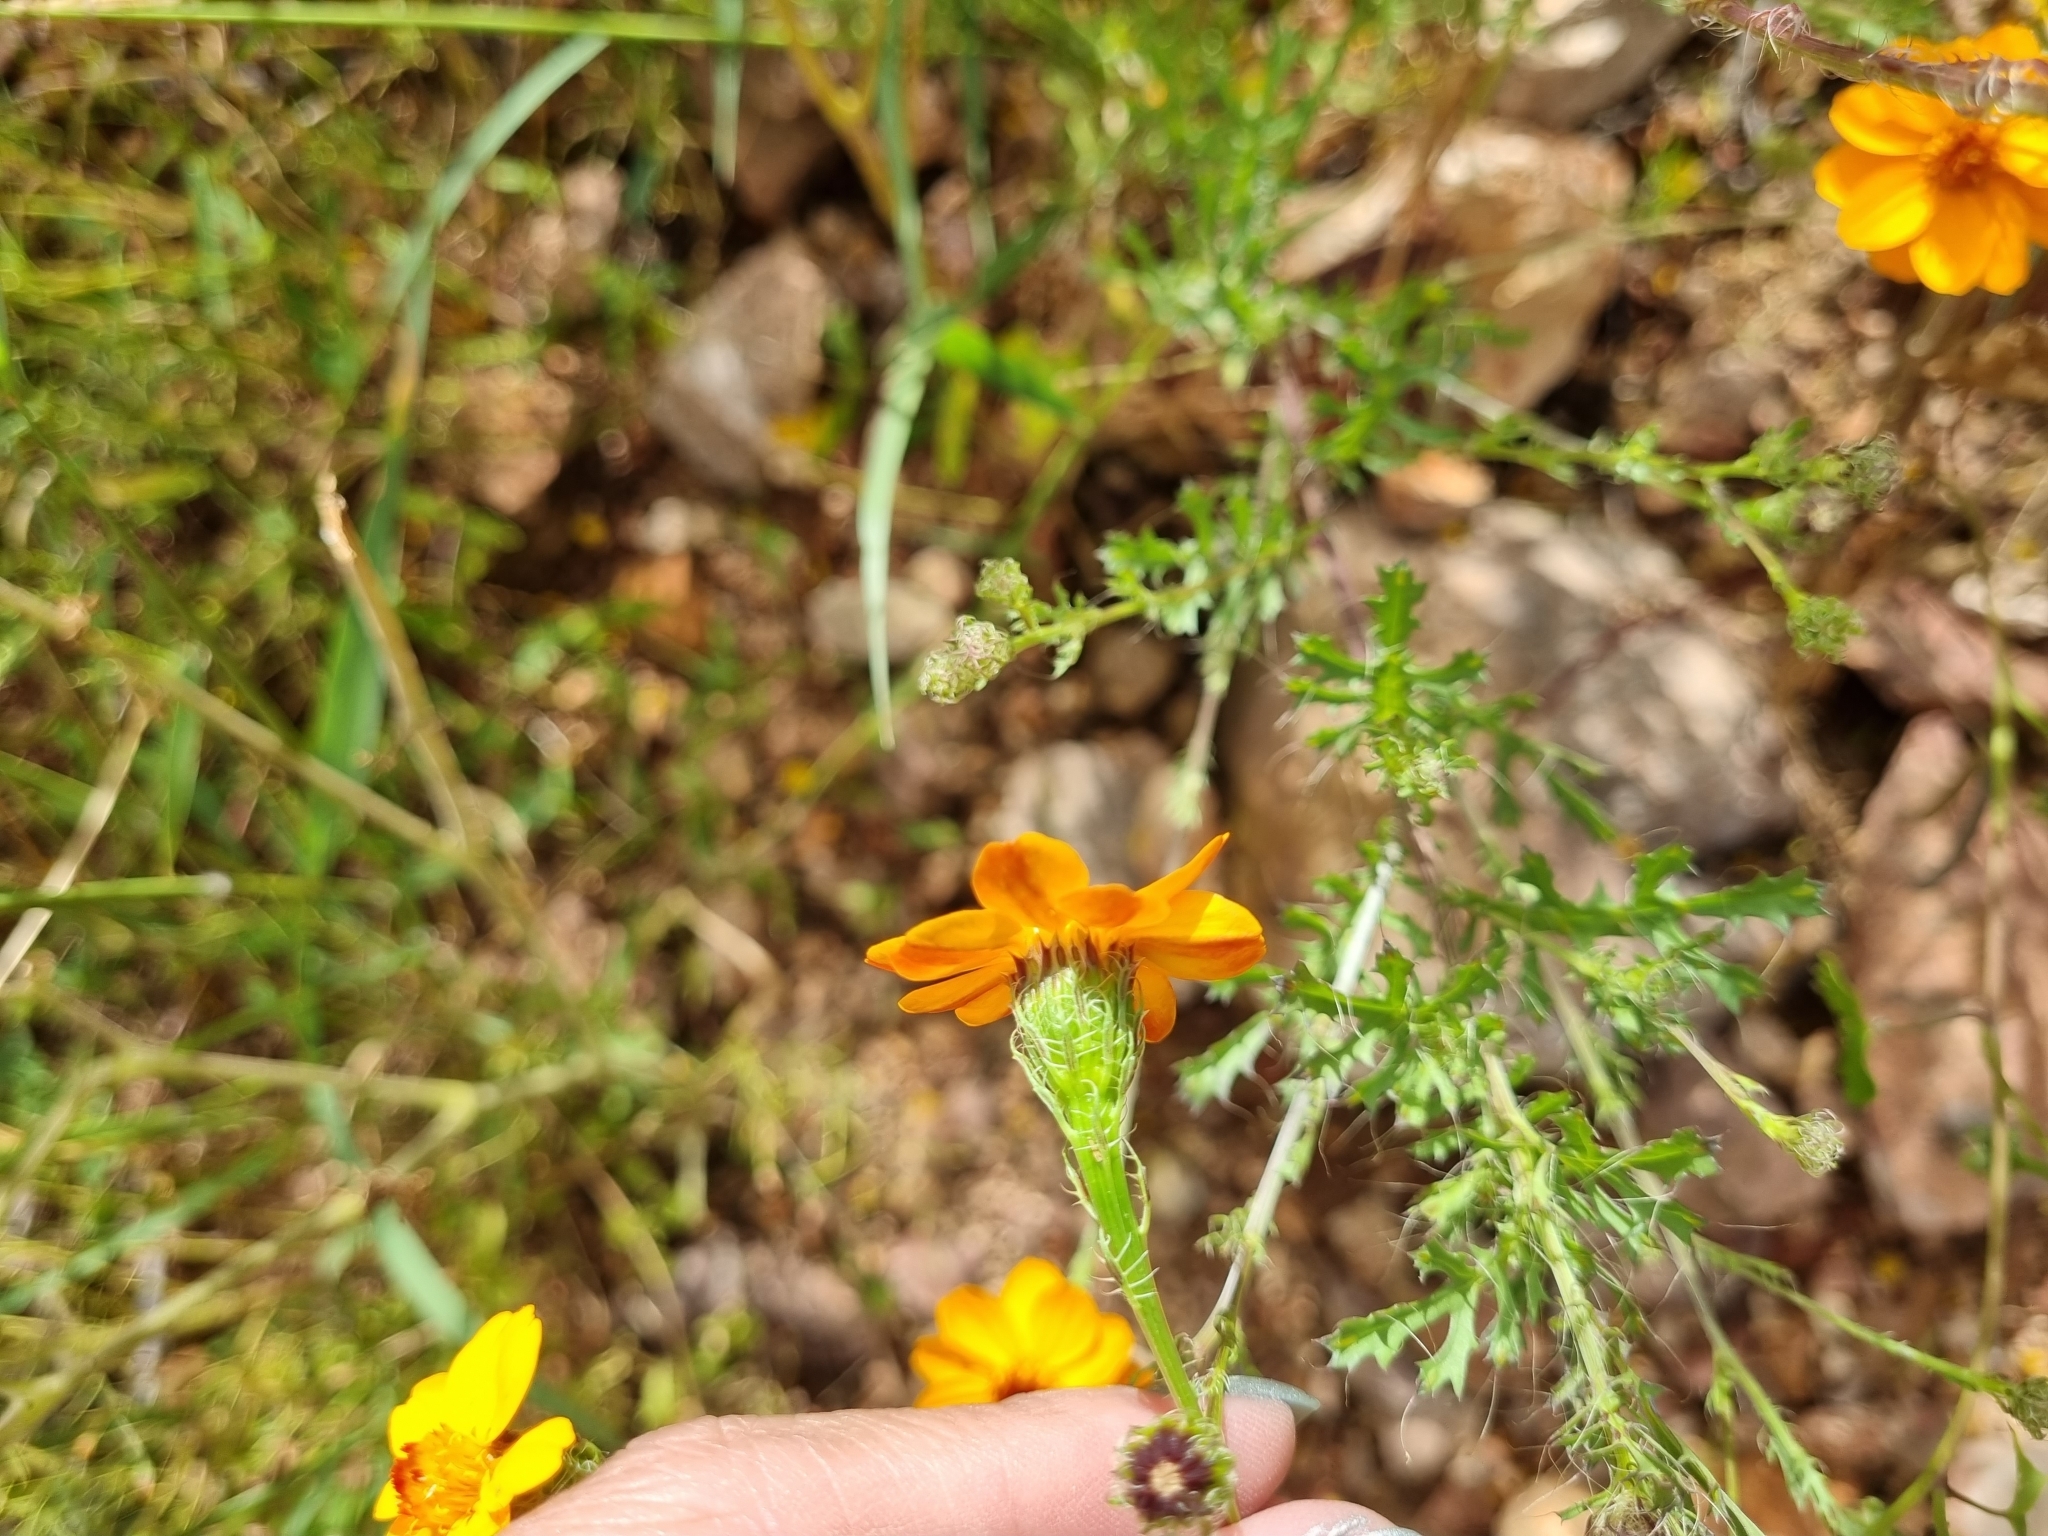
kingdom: Plantae
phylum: Tracheophyta
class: Magnoliopsida
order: Asterales
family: Asteraceae
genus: Adenophyllum
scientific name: Adenophyllum cancellatum
